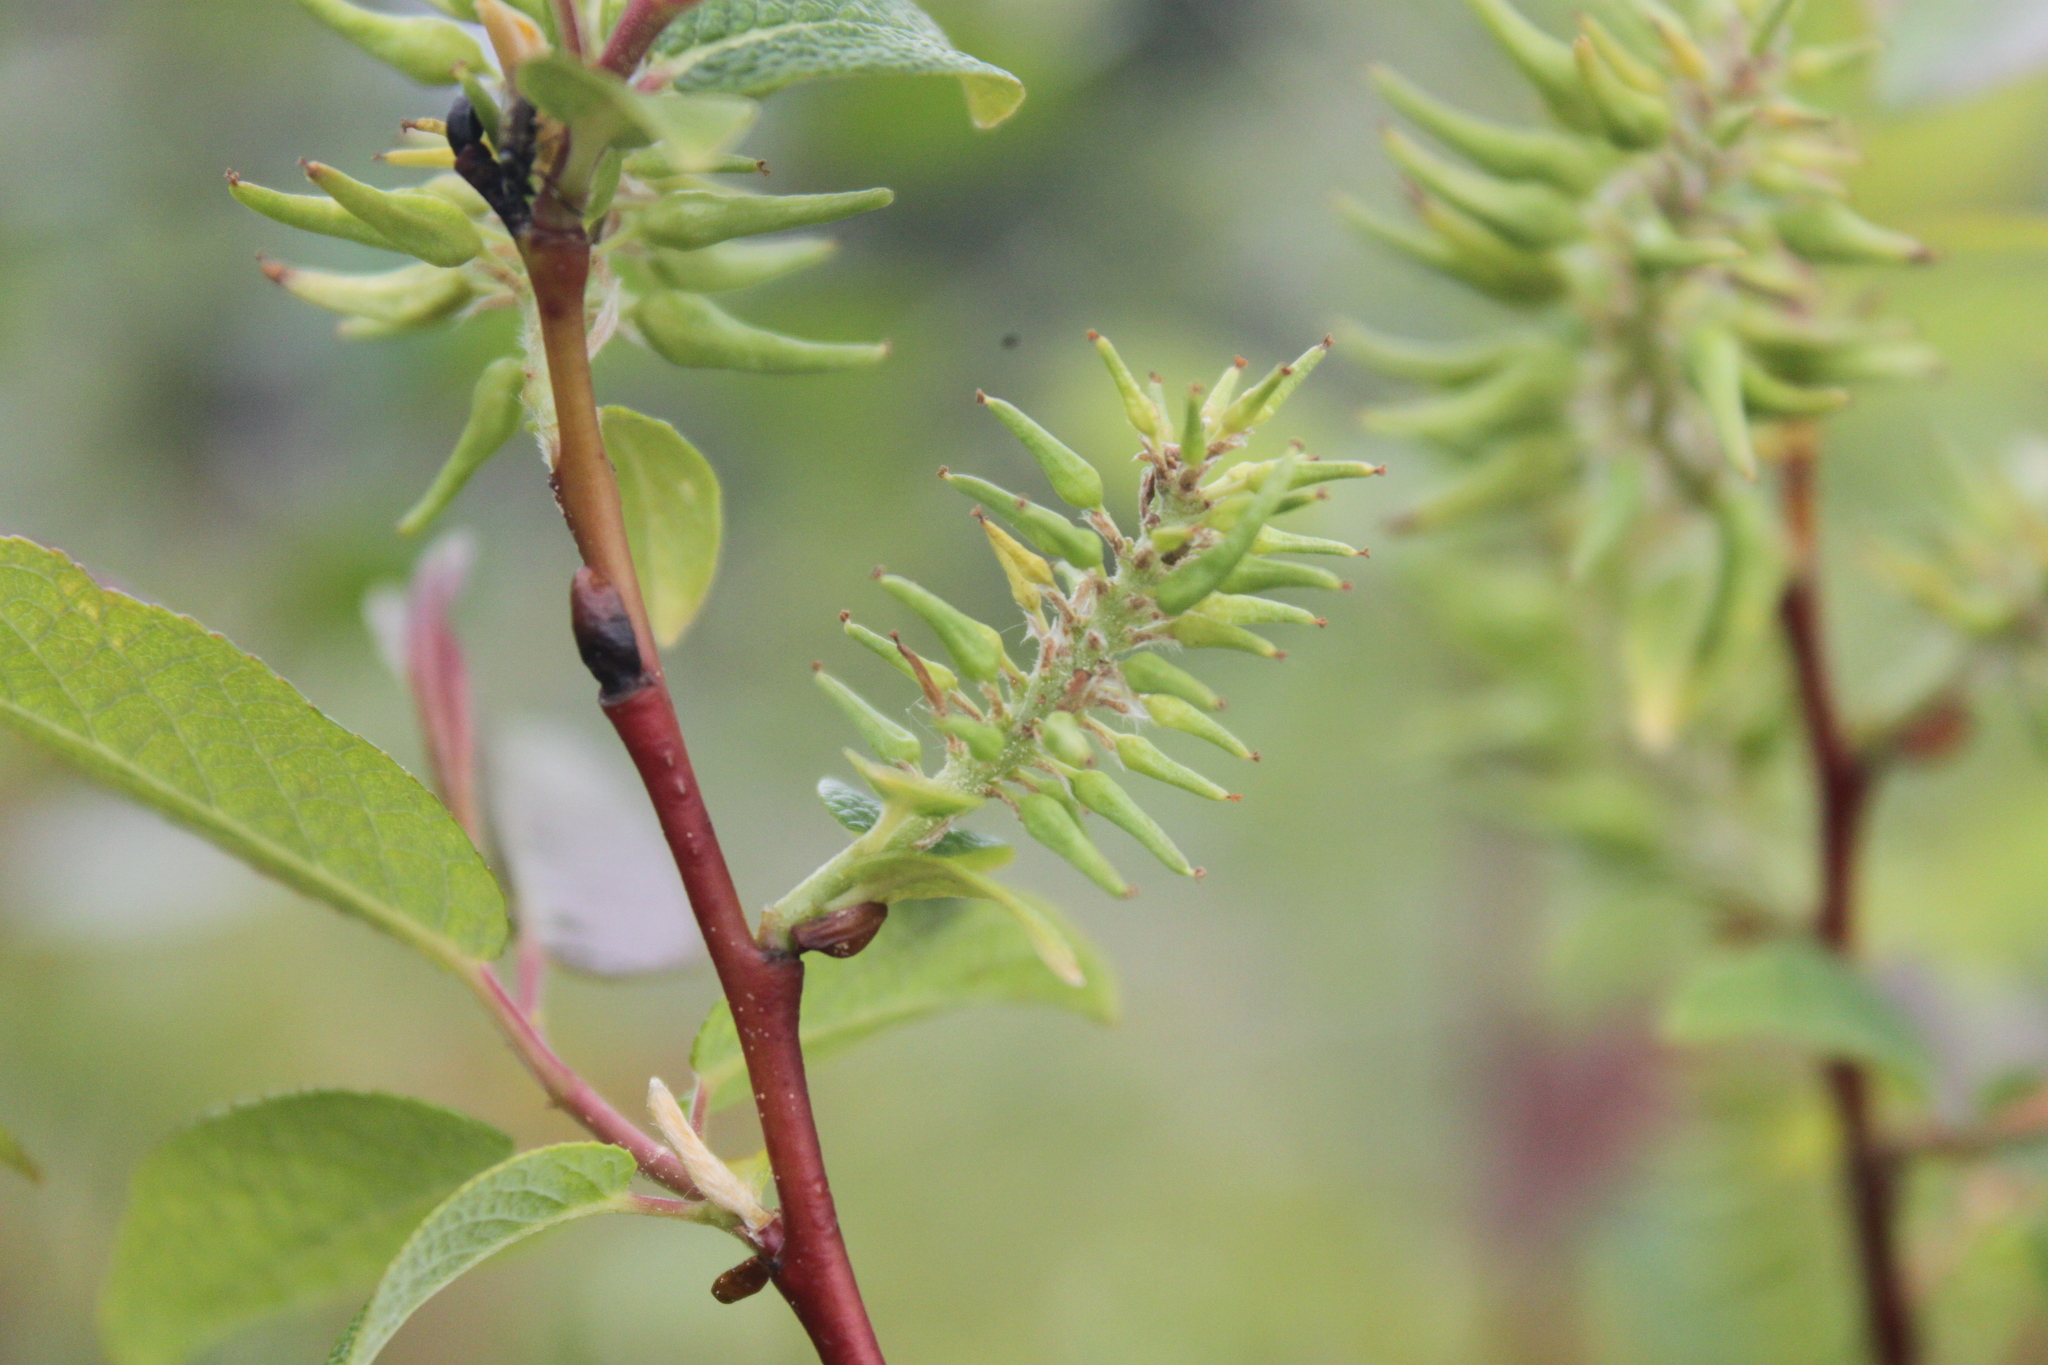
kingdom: Plantae
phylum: Tracheophyta
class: Magnoliopsida
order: Malpighiales
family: Salicaceae
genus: Salix
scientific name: Salix pyrifolia
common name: Balsam willow
